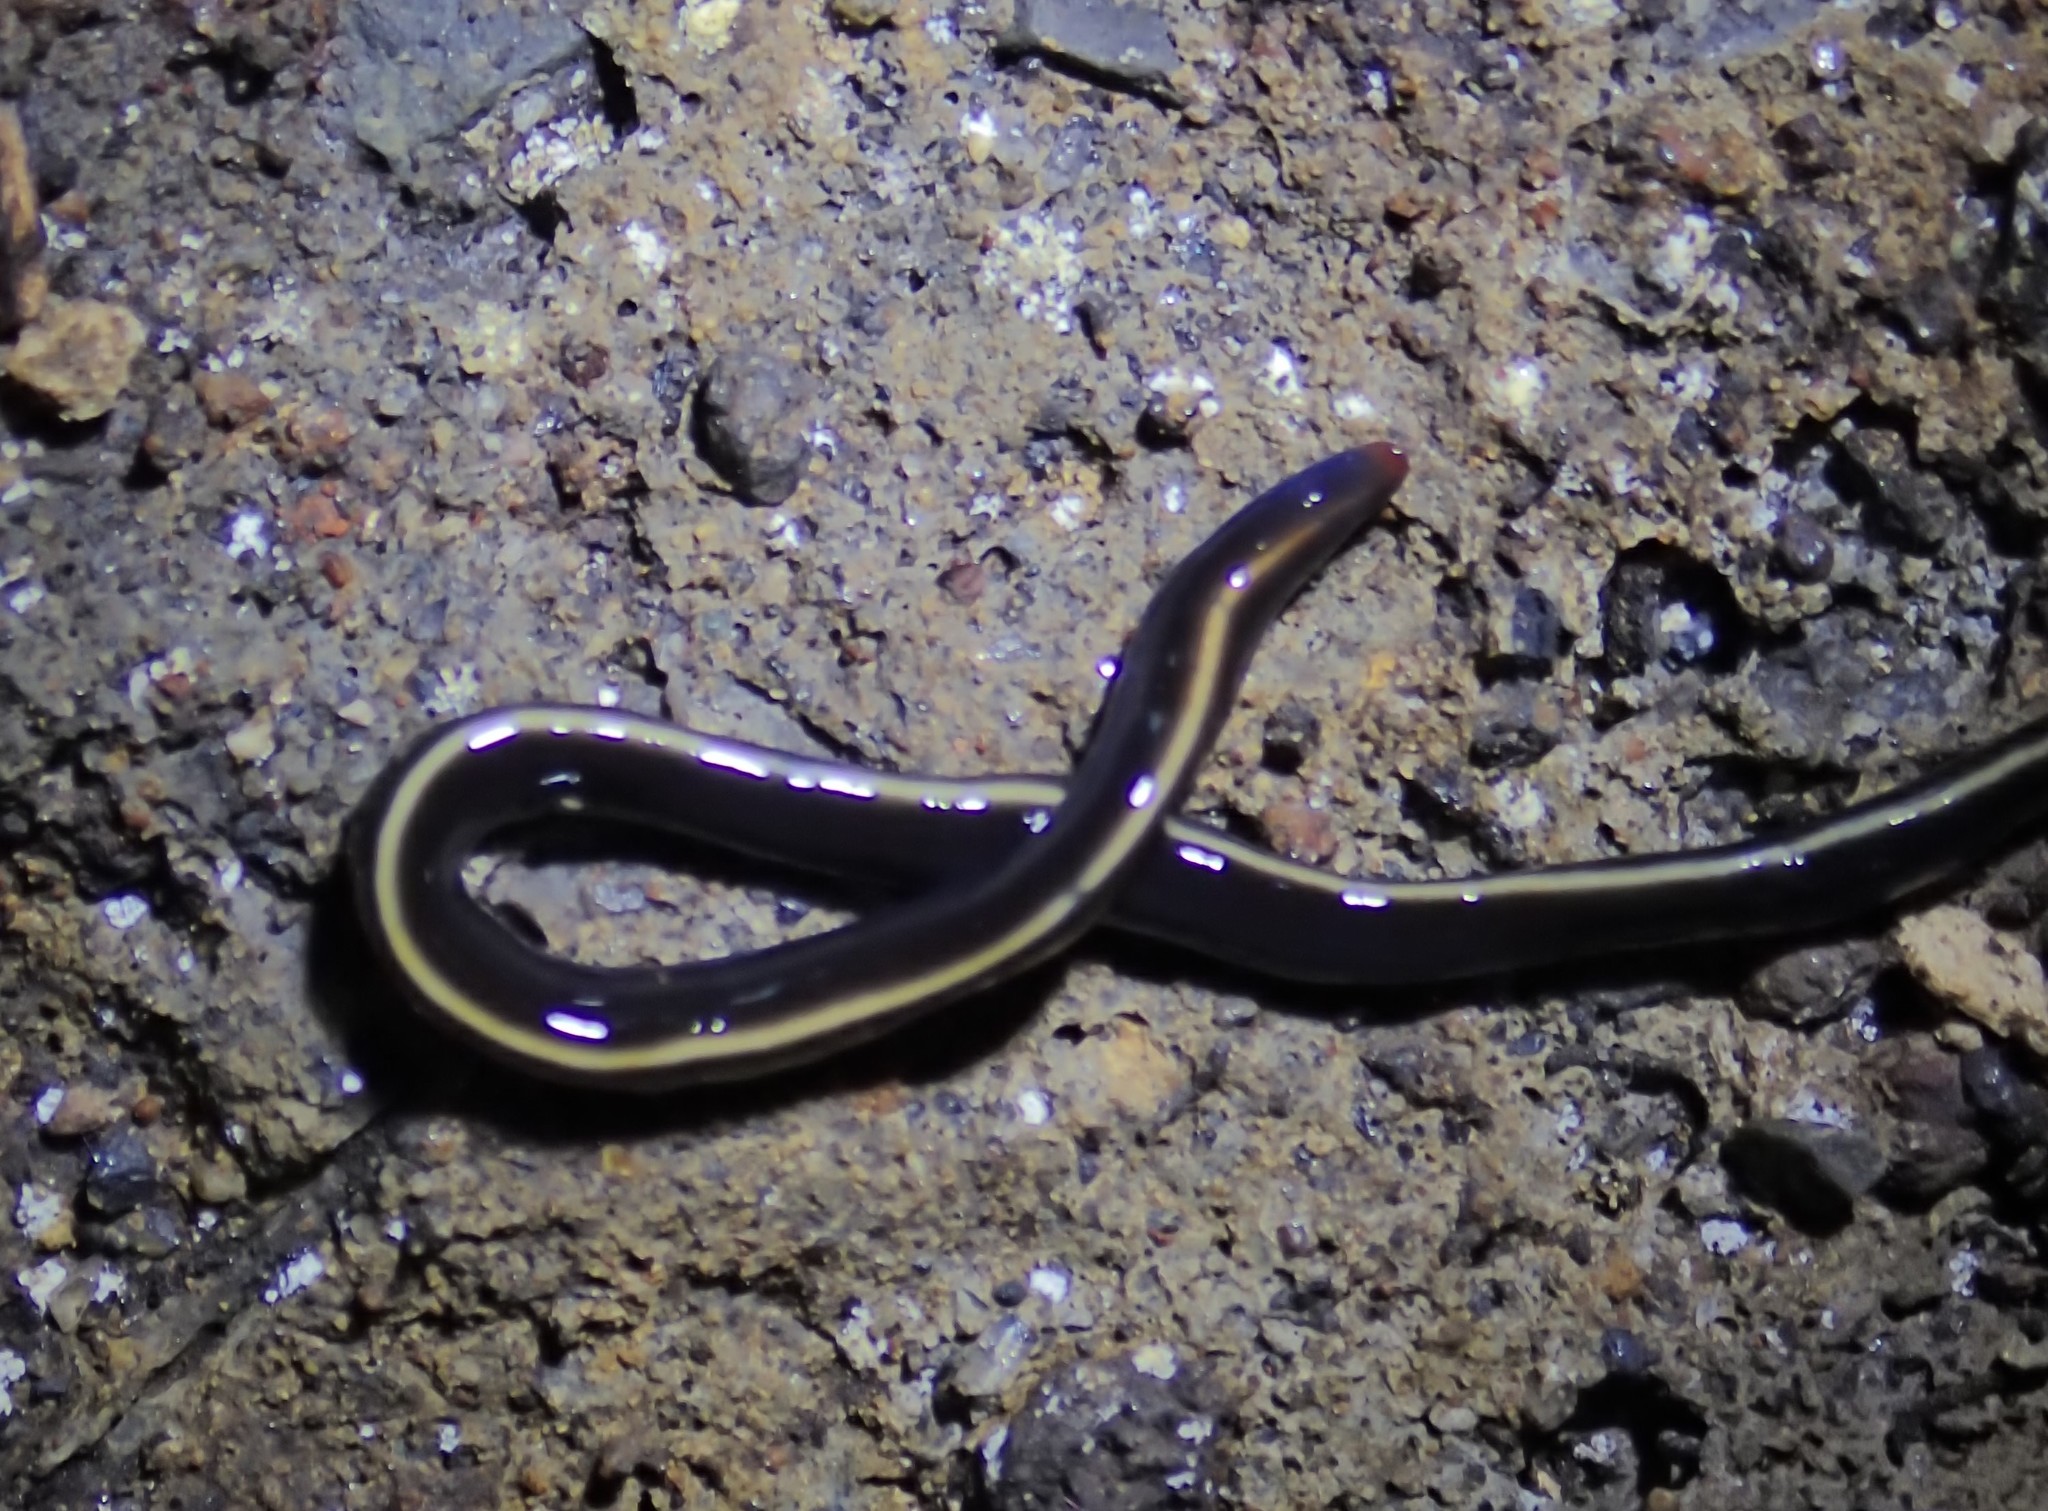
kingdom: Animalia
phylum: Platyhelminthes
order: Tricladida
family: Geoplanidae
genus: Caenoplana
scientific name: Caenoplana coerulea
